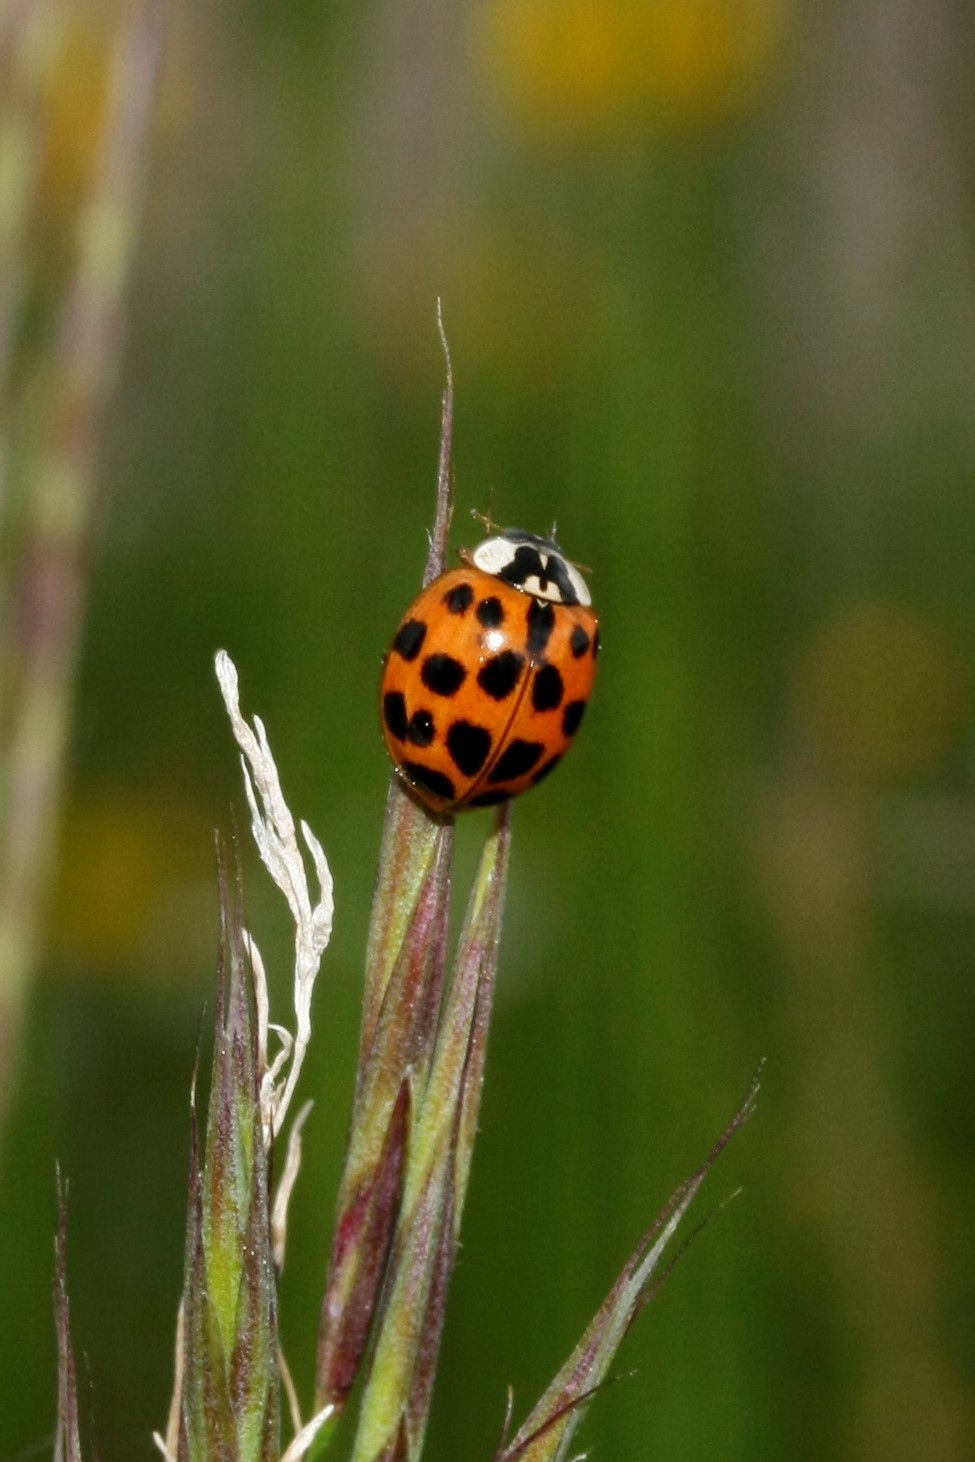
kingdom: Animalia
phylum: Arthropoda
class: Insecta
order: Coleoptera
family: Coccinellidae
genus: Harmonia
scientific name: Harmonia axyridis
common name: Harlequin ladybird
